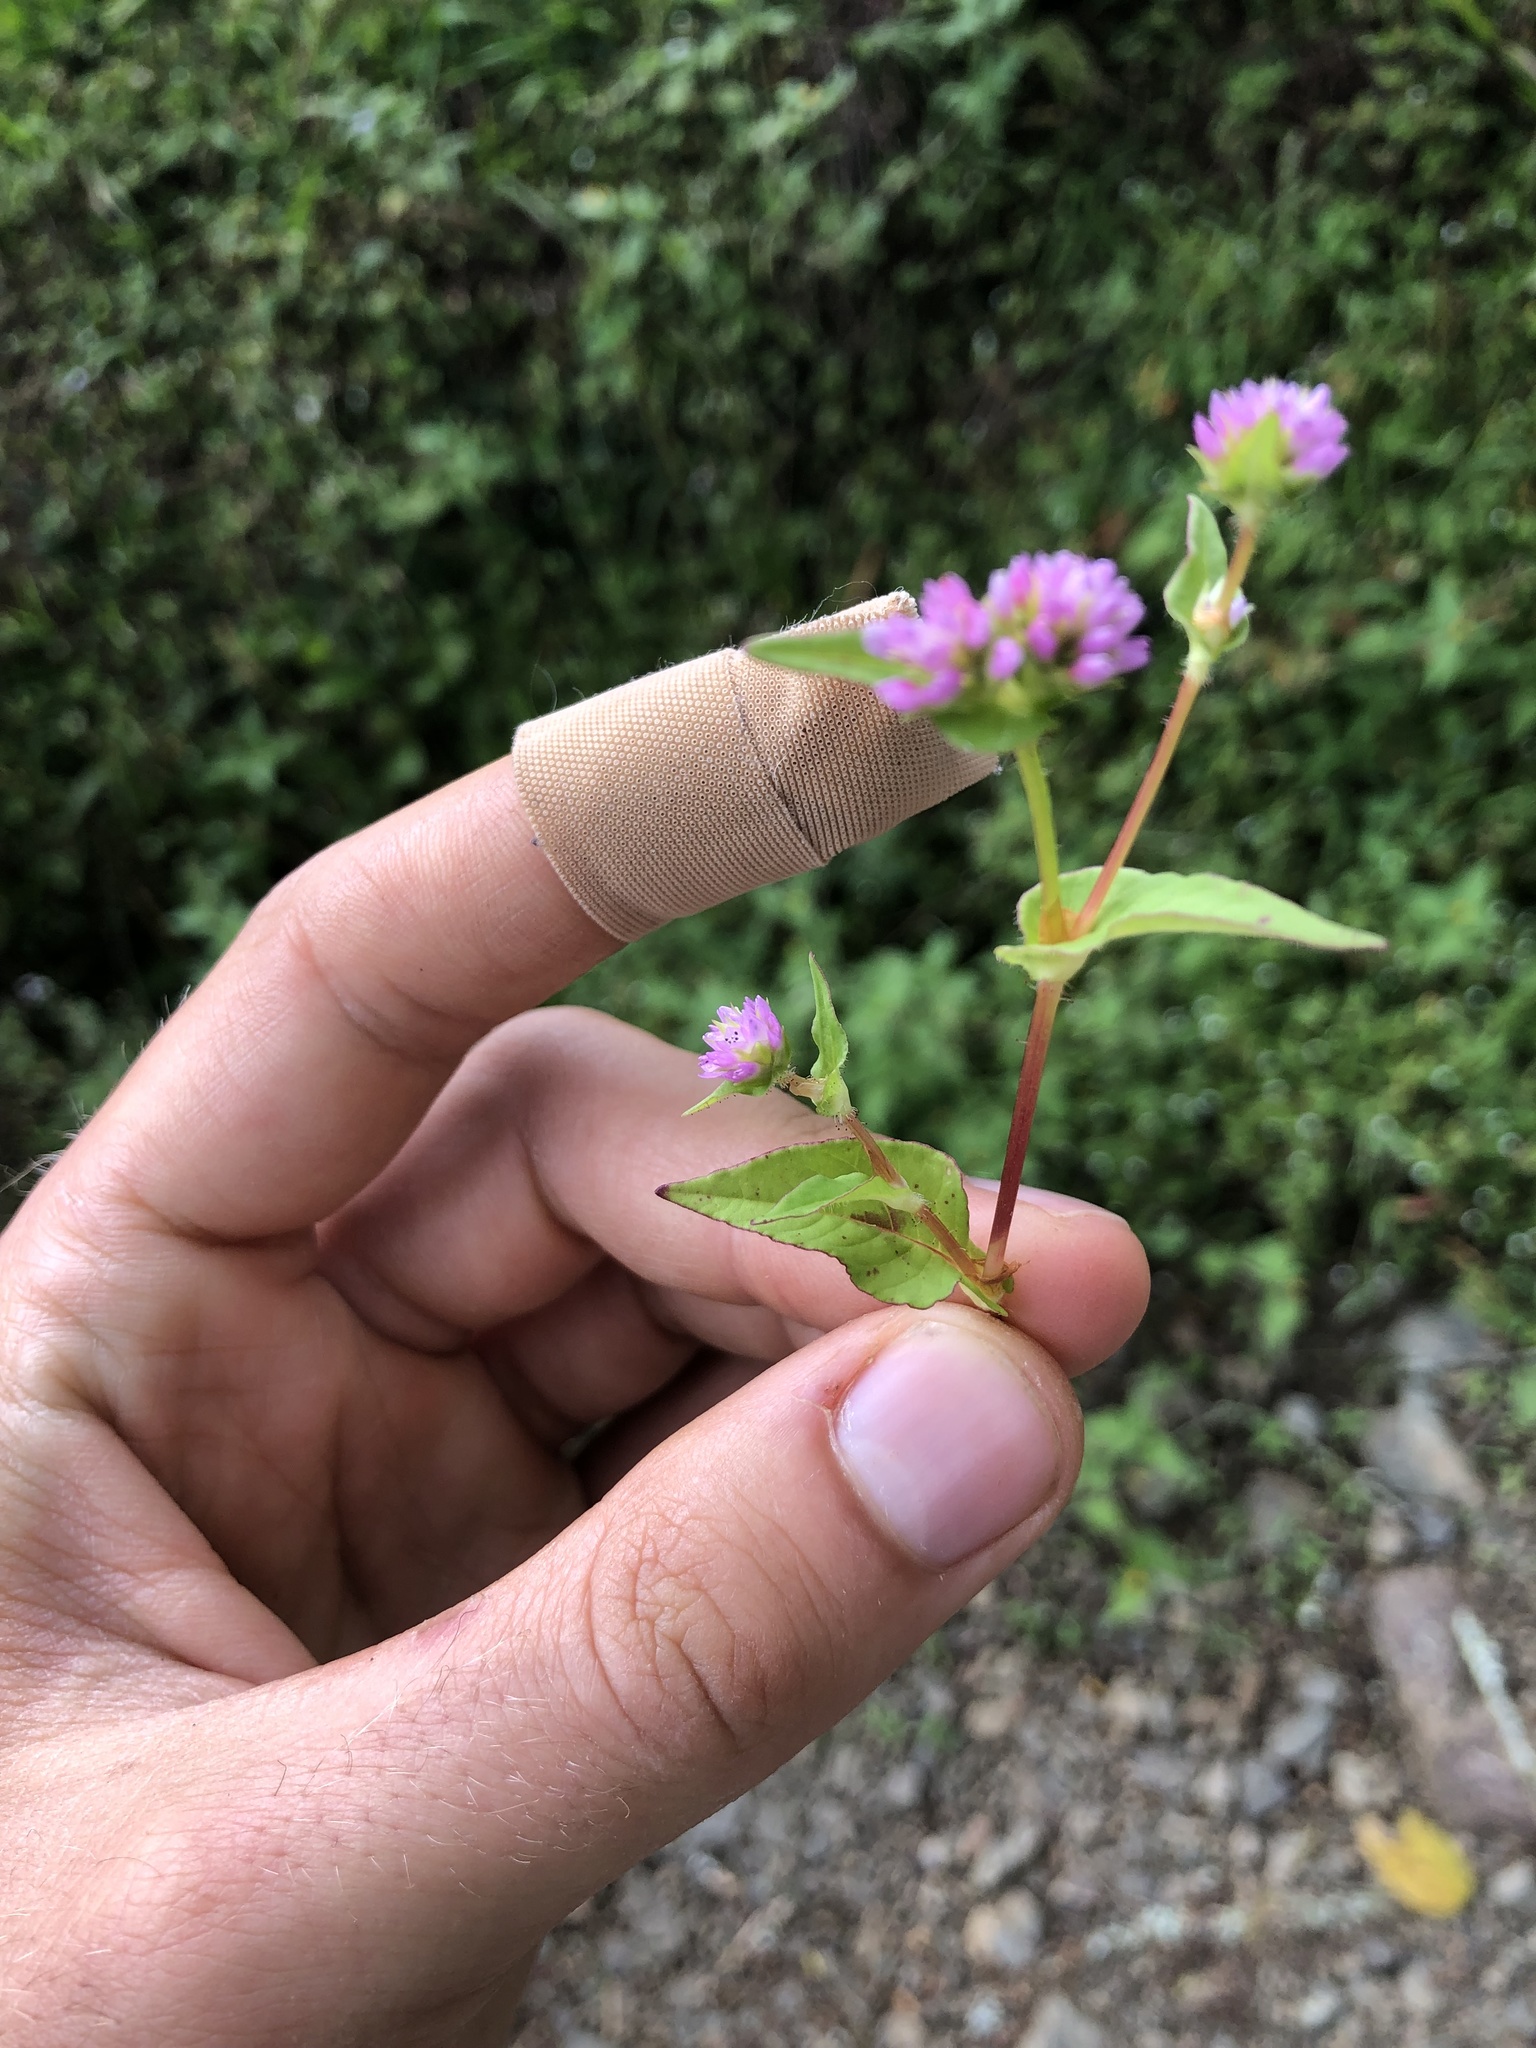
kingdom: Plantae
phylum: Tracheophyta
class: Magnoliopsida
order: Caryophyllales
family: Polygonaceae
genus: Persicaria
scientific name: Persicaria nepalensis
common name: Nepal persicaria
